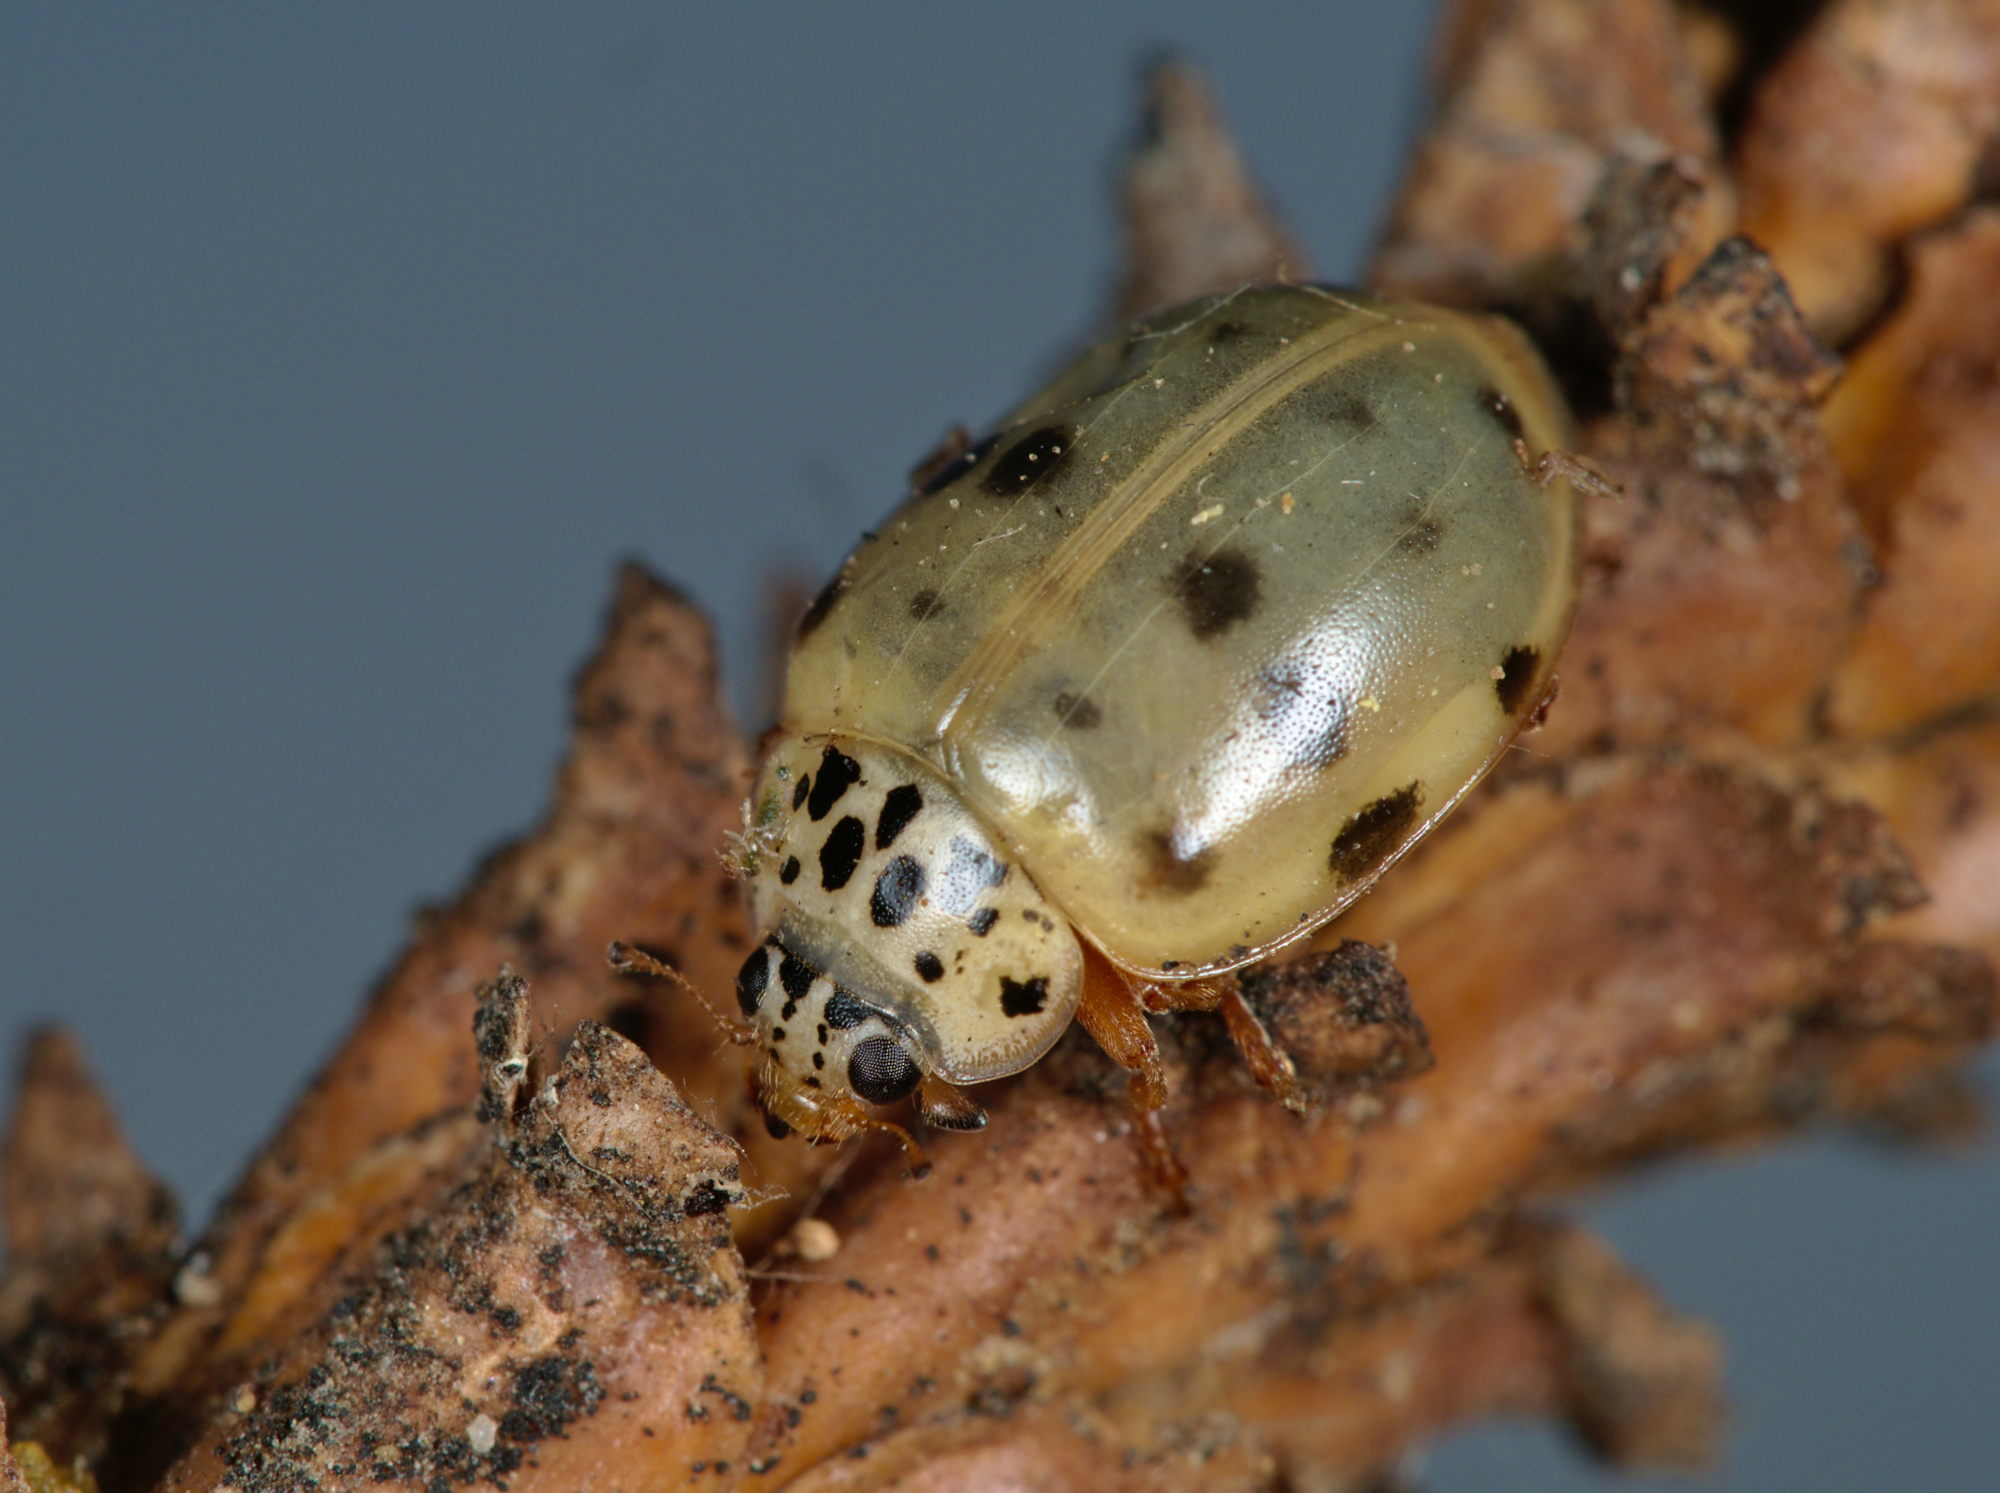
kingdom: Animalia
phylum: Arthropoda
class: Insecta
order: Coleoptera
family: Coccinellidae
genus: Harmonia
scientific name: Harmonia quadripunctata
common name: Cream-streaked ladybird
